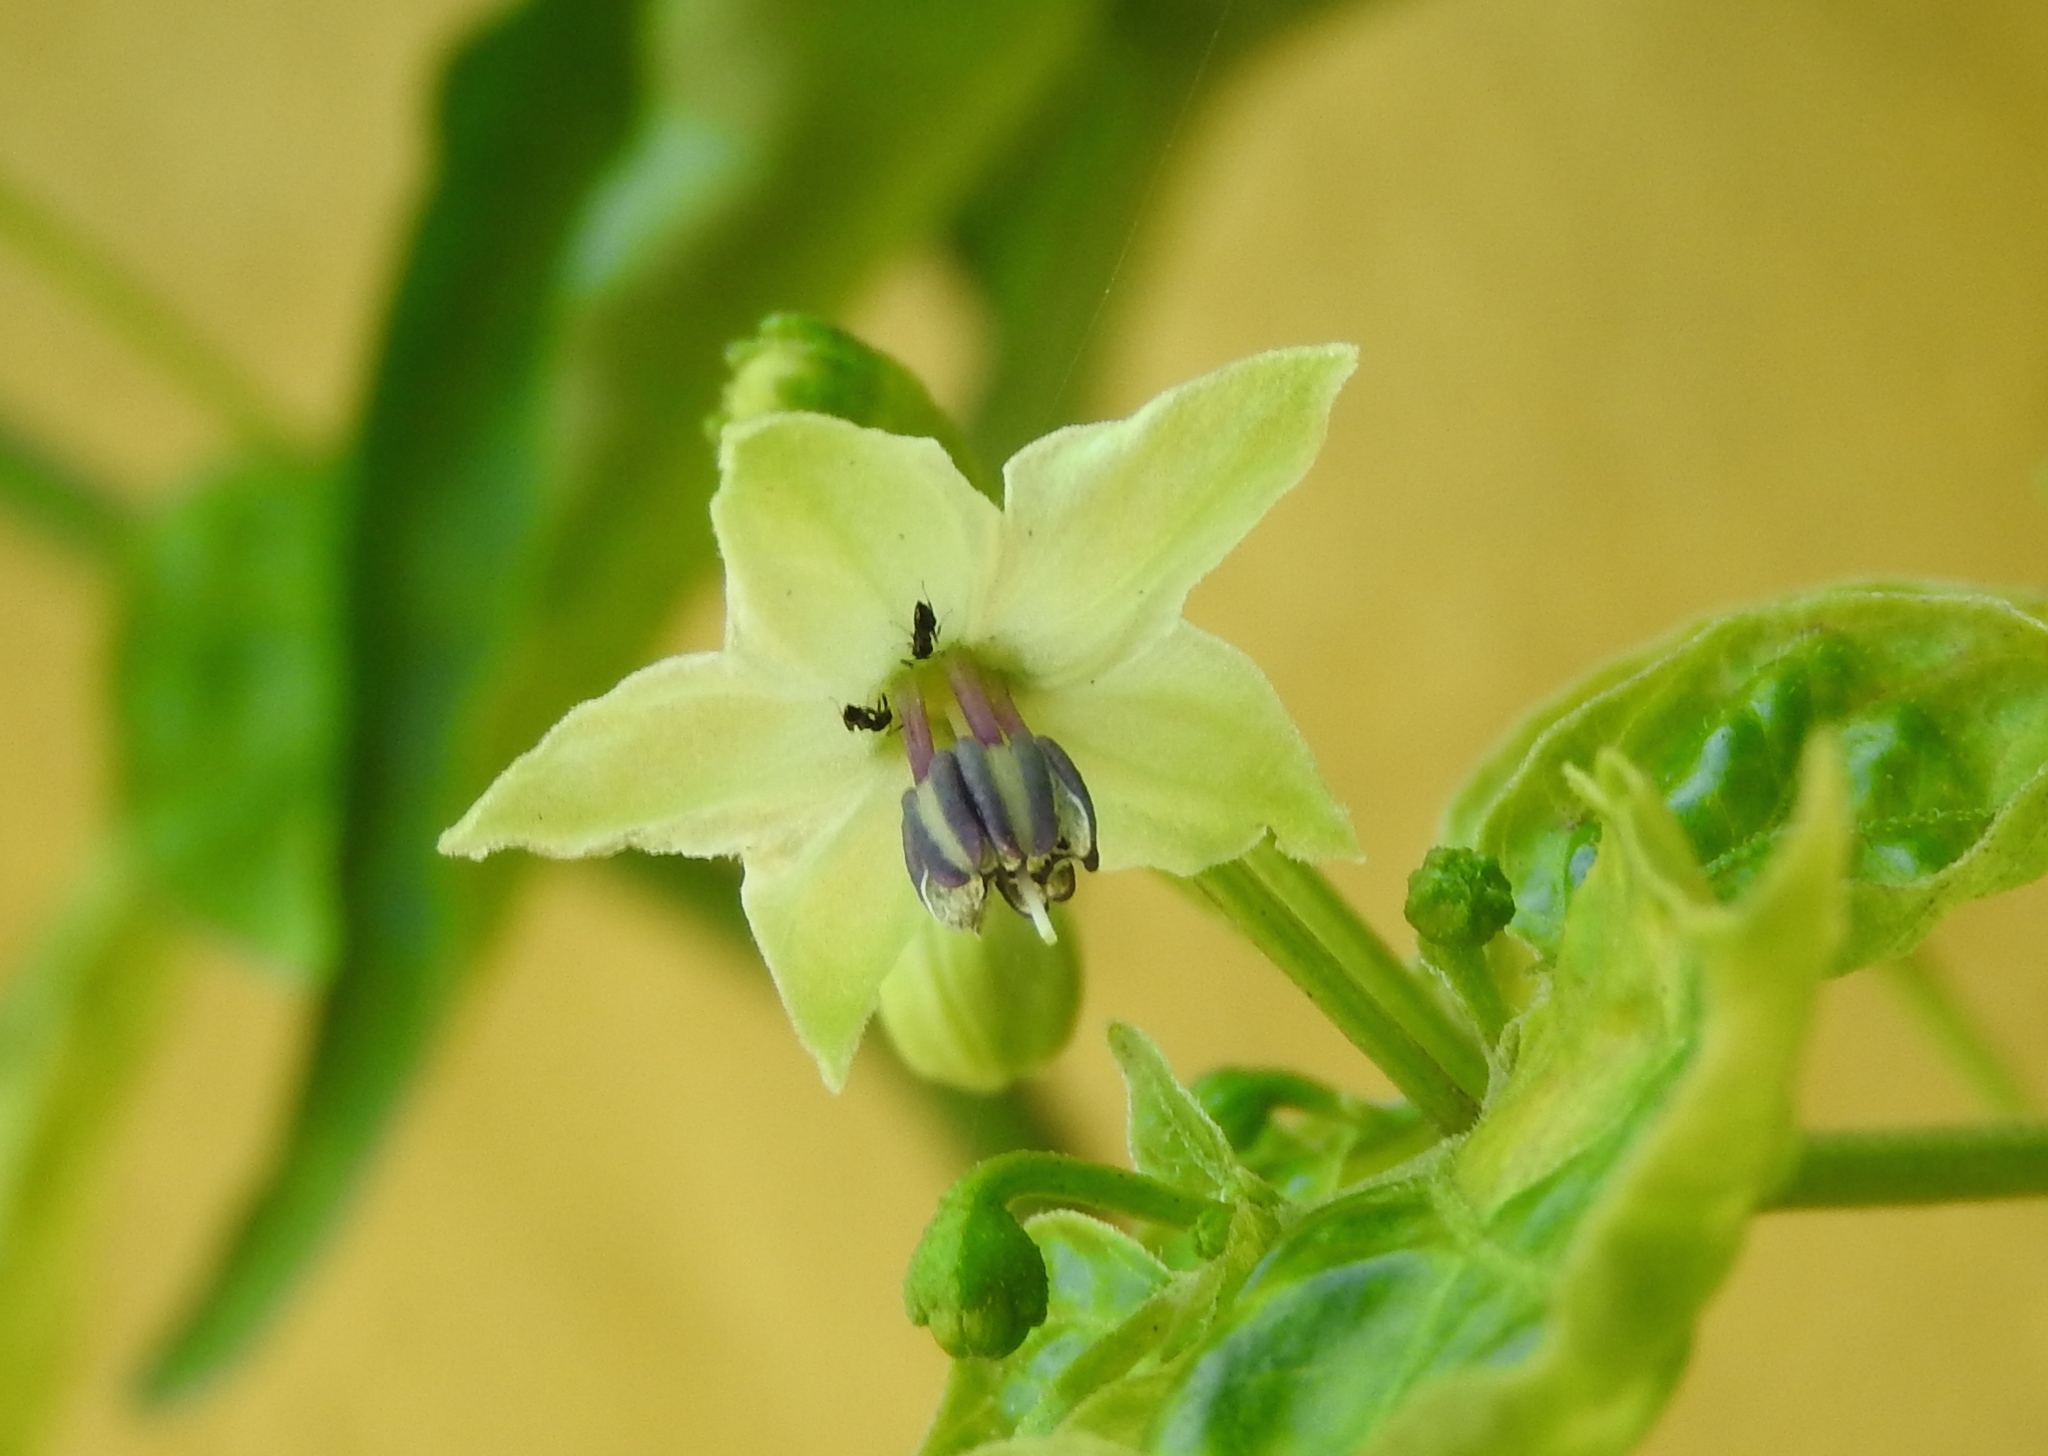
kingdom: Plantae
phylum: Tracheophyta
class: Magnoliopsida
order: Solanales
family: Solanaceae
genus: Capsicum
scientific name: Capsicum annuum
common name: Sweet pepper
